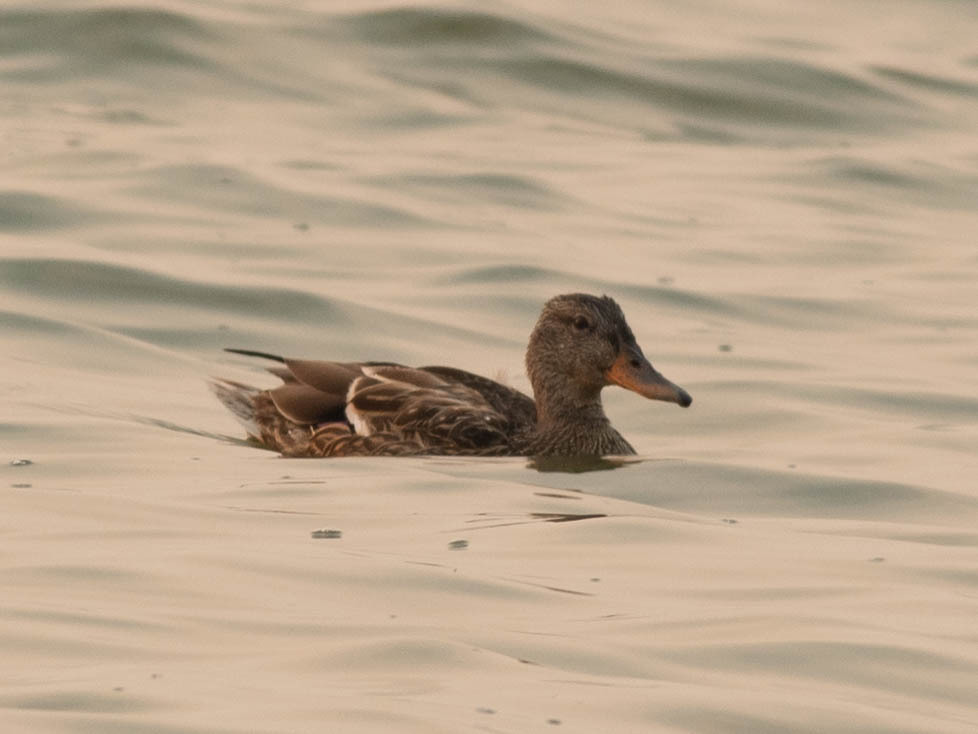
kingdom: Animalia
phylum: Chordata
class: Aves
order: Anseriformes
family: Anatidae
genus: Anas
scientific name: Anas platyrhynchos
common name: Mallard
